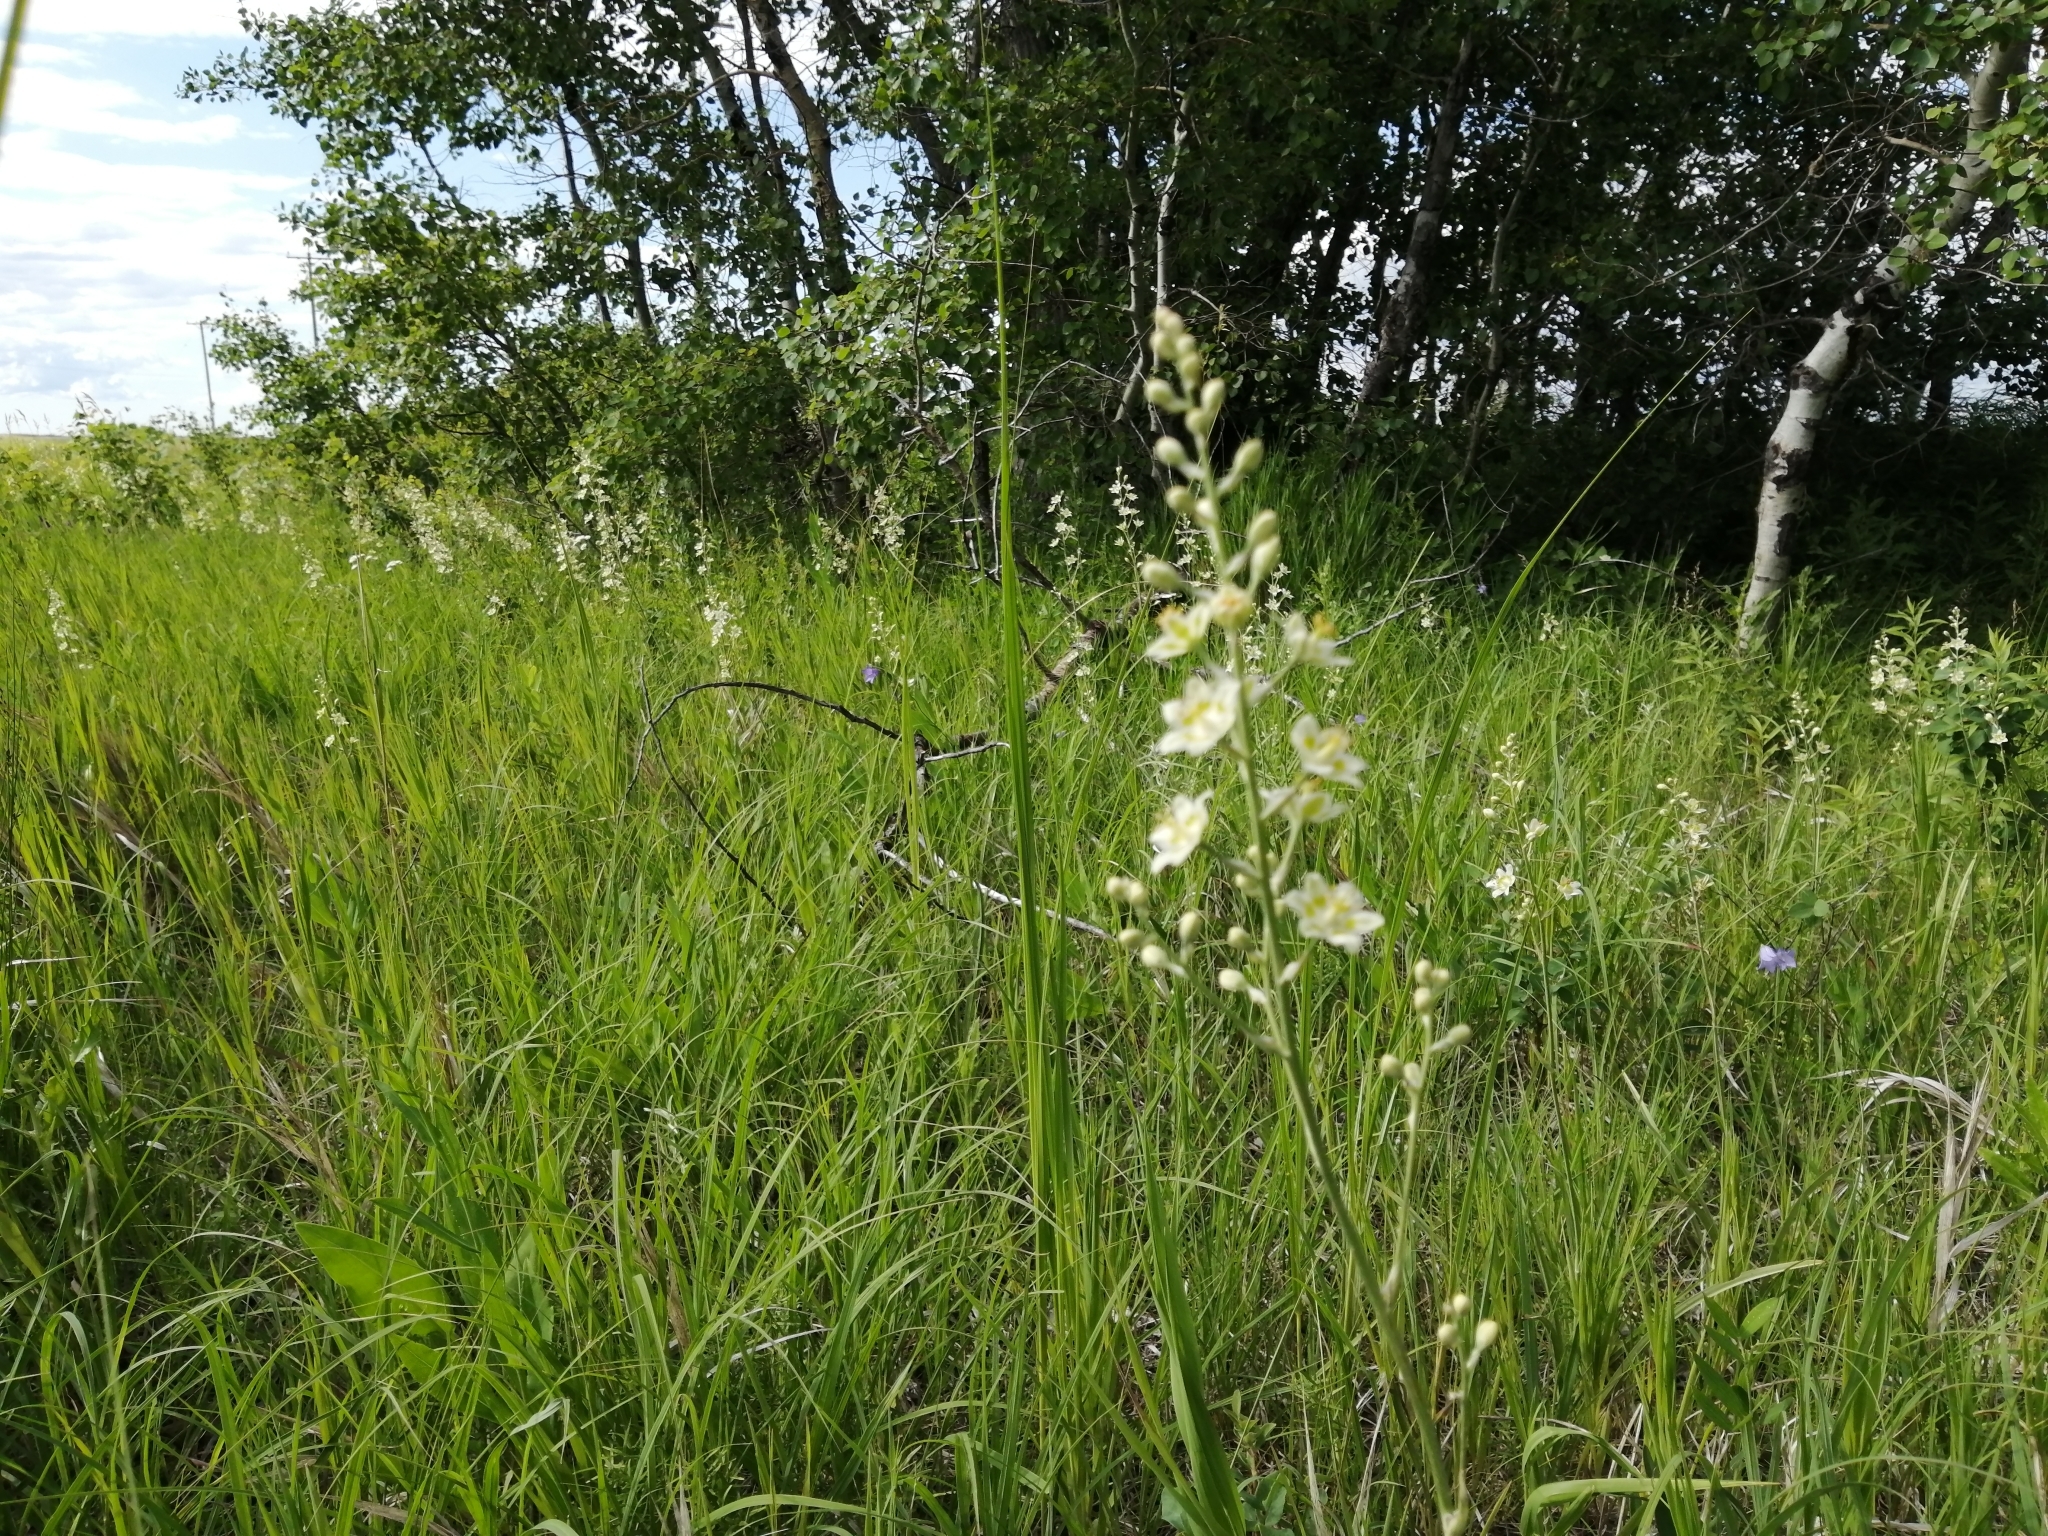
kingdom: Plantae
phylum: Tracheophyta
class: Liliopsida
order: Liliales
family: Melanthiaceae
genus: Anticlea
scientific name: Anticlea elegans
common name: Mountain death camas
